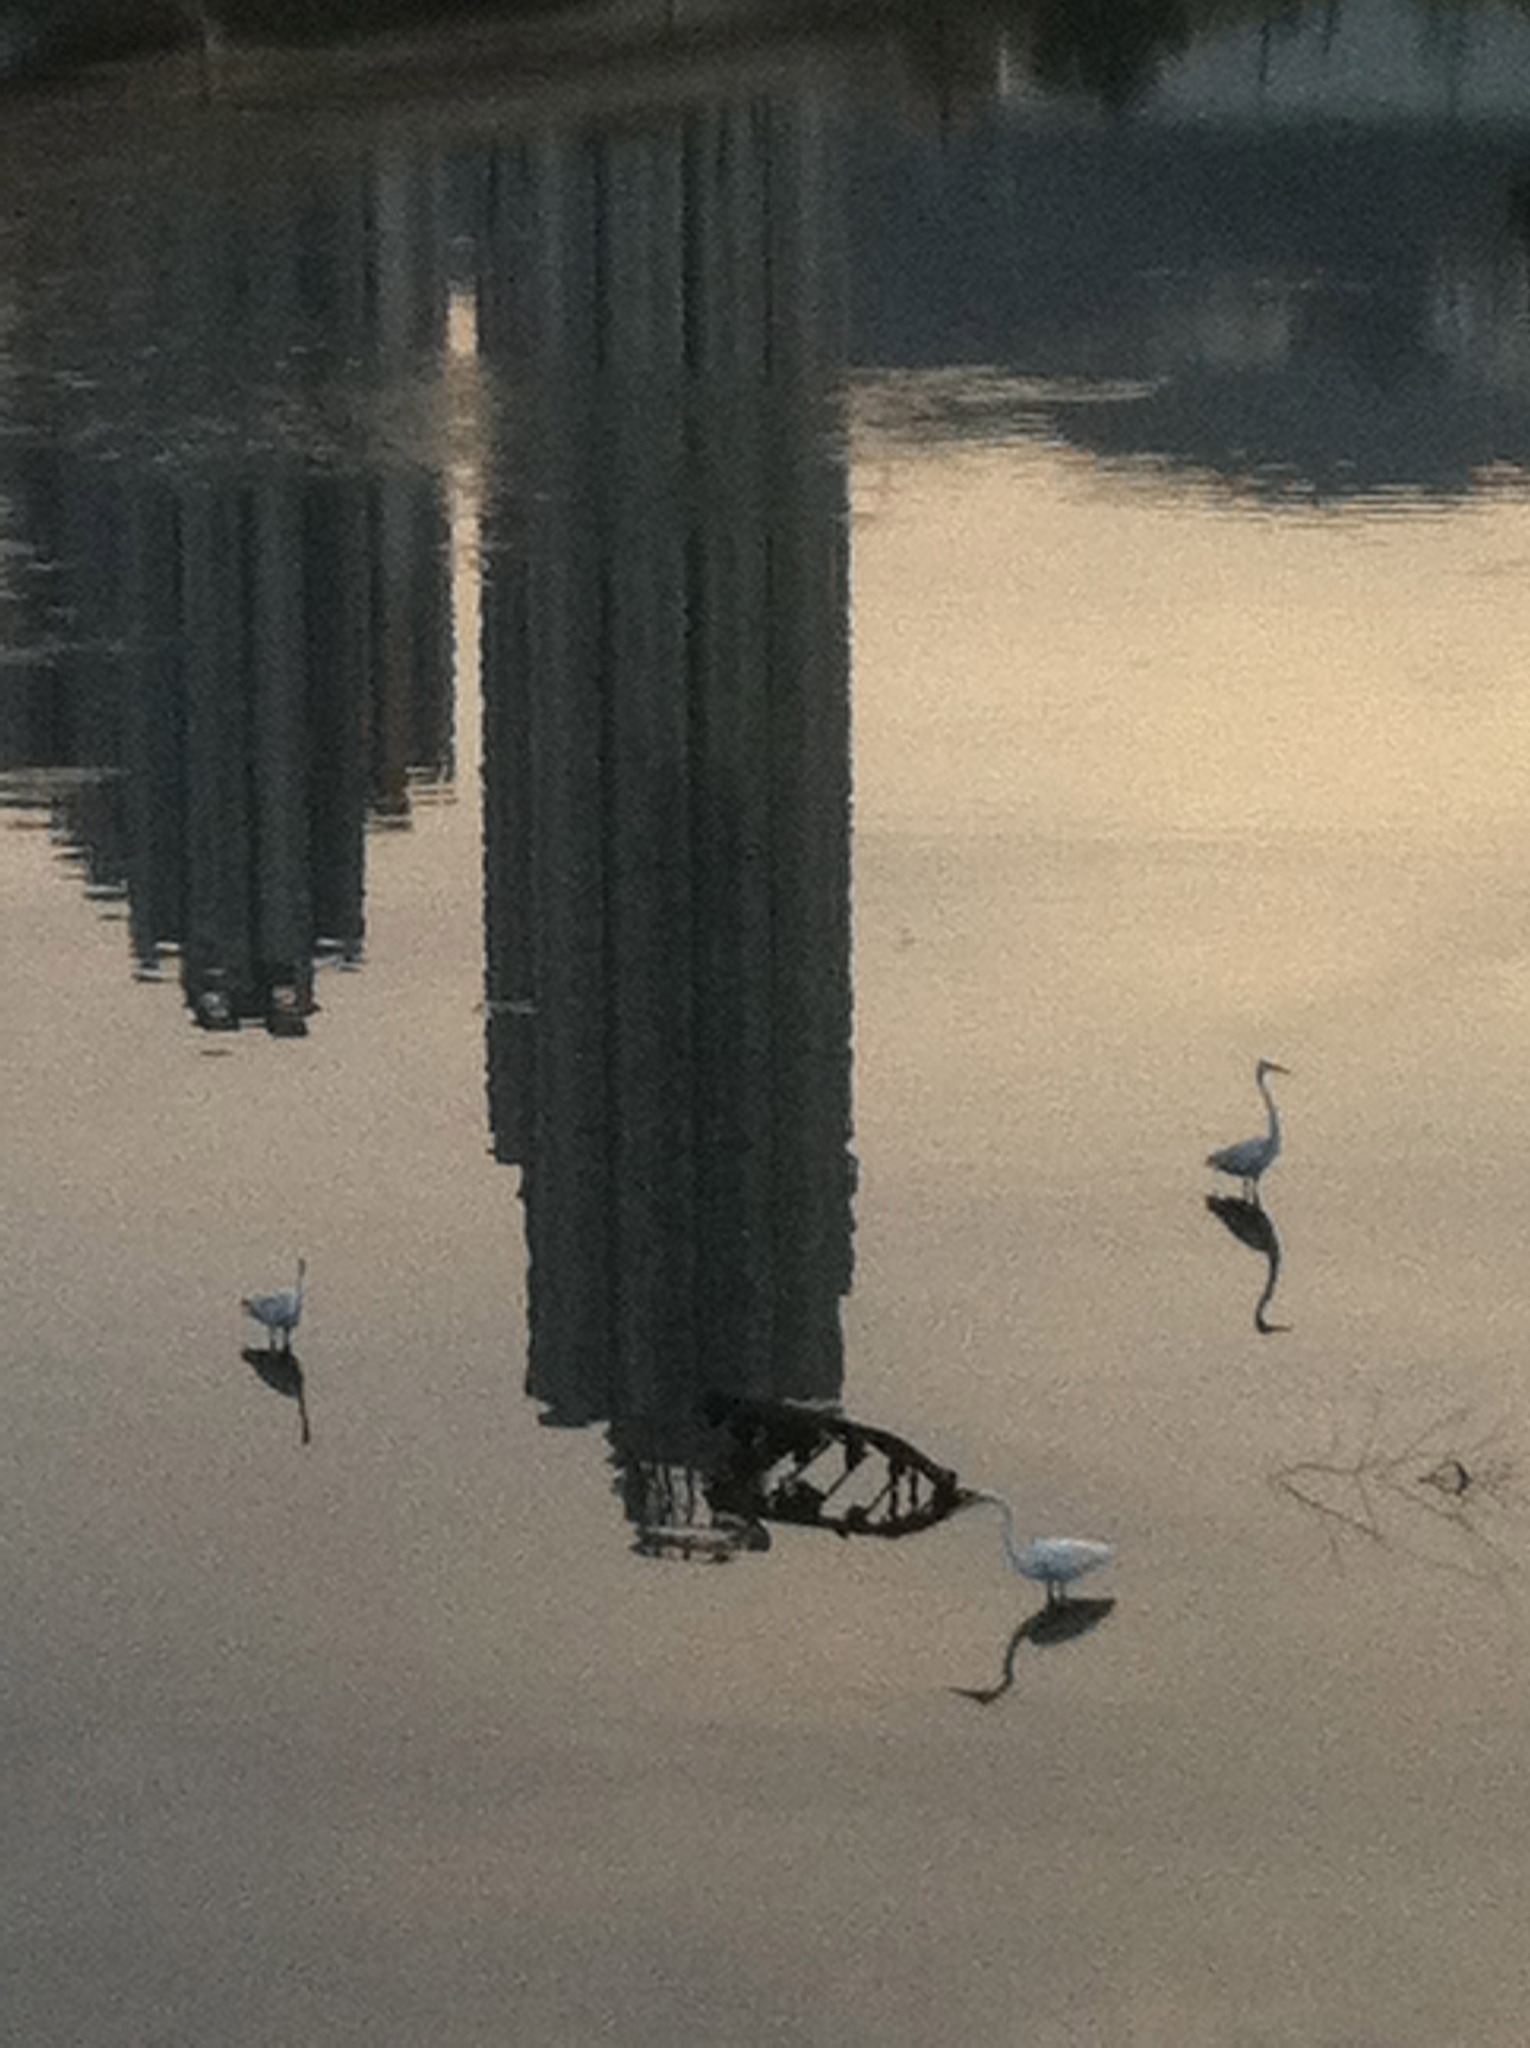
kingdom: Animalia
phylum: Chordata
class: Aves
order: Pelecaniformes
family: Ardeidae
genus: Ardea
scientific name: Ardea alba
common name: Great egret
